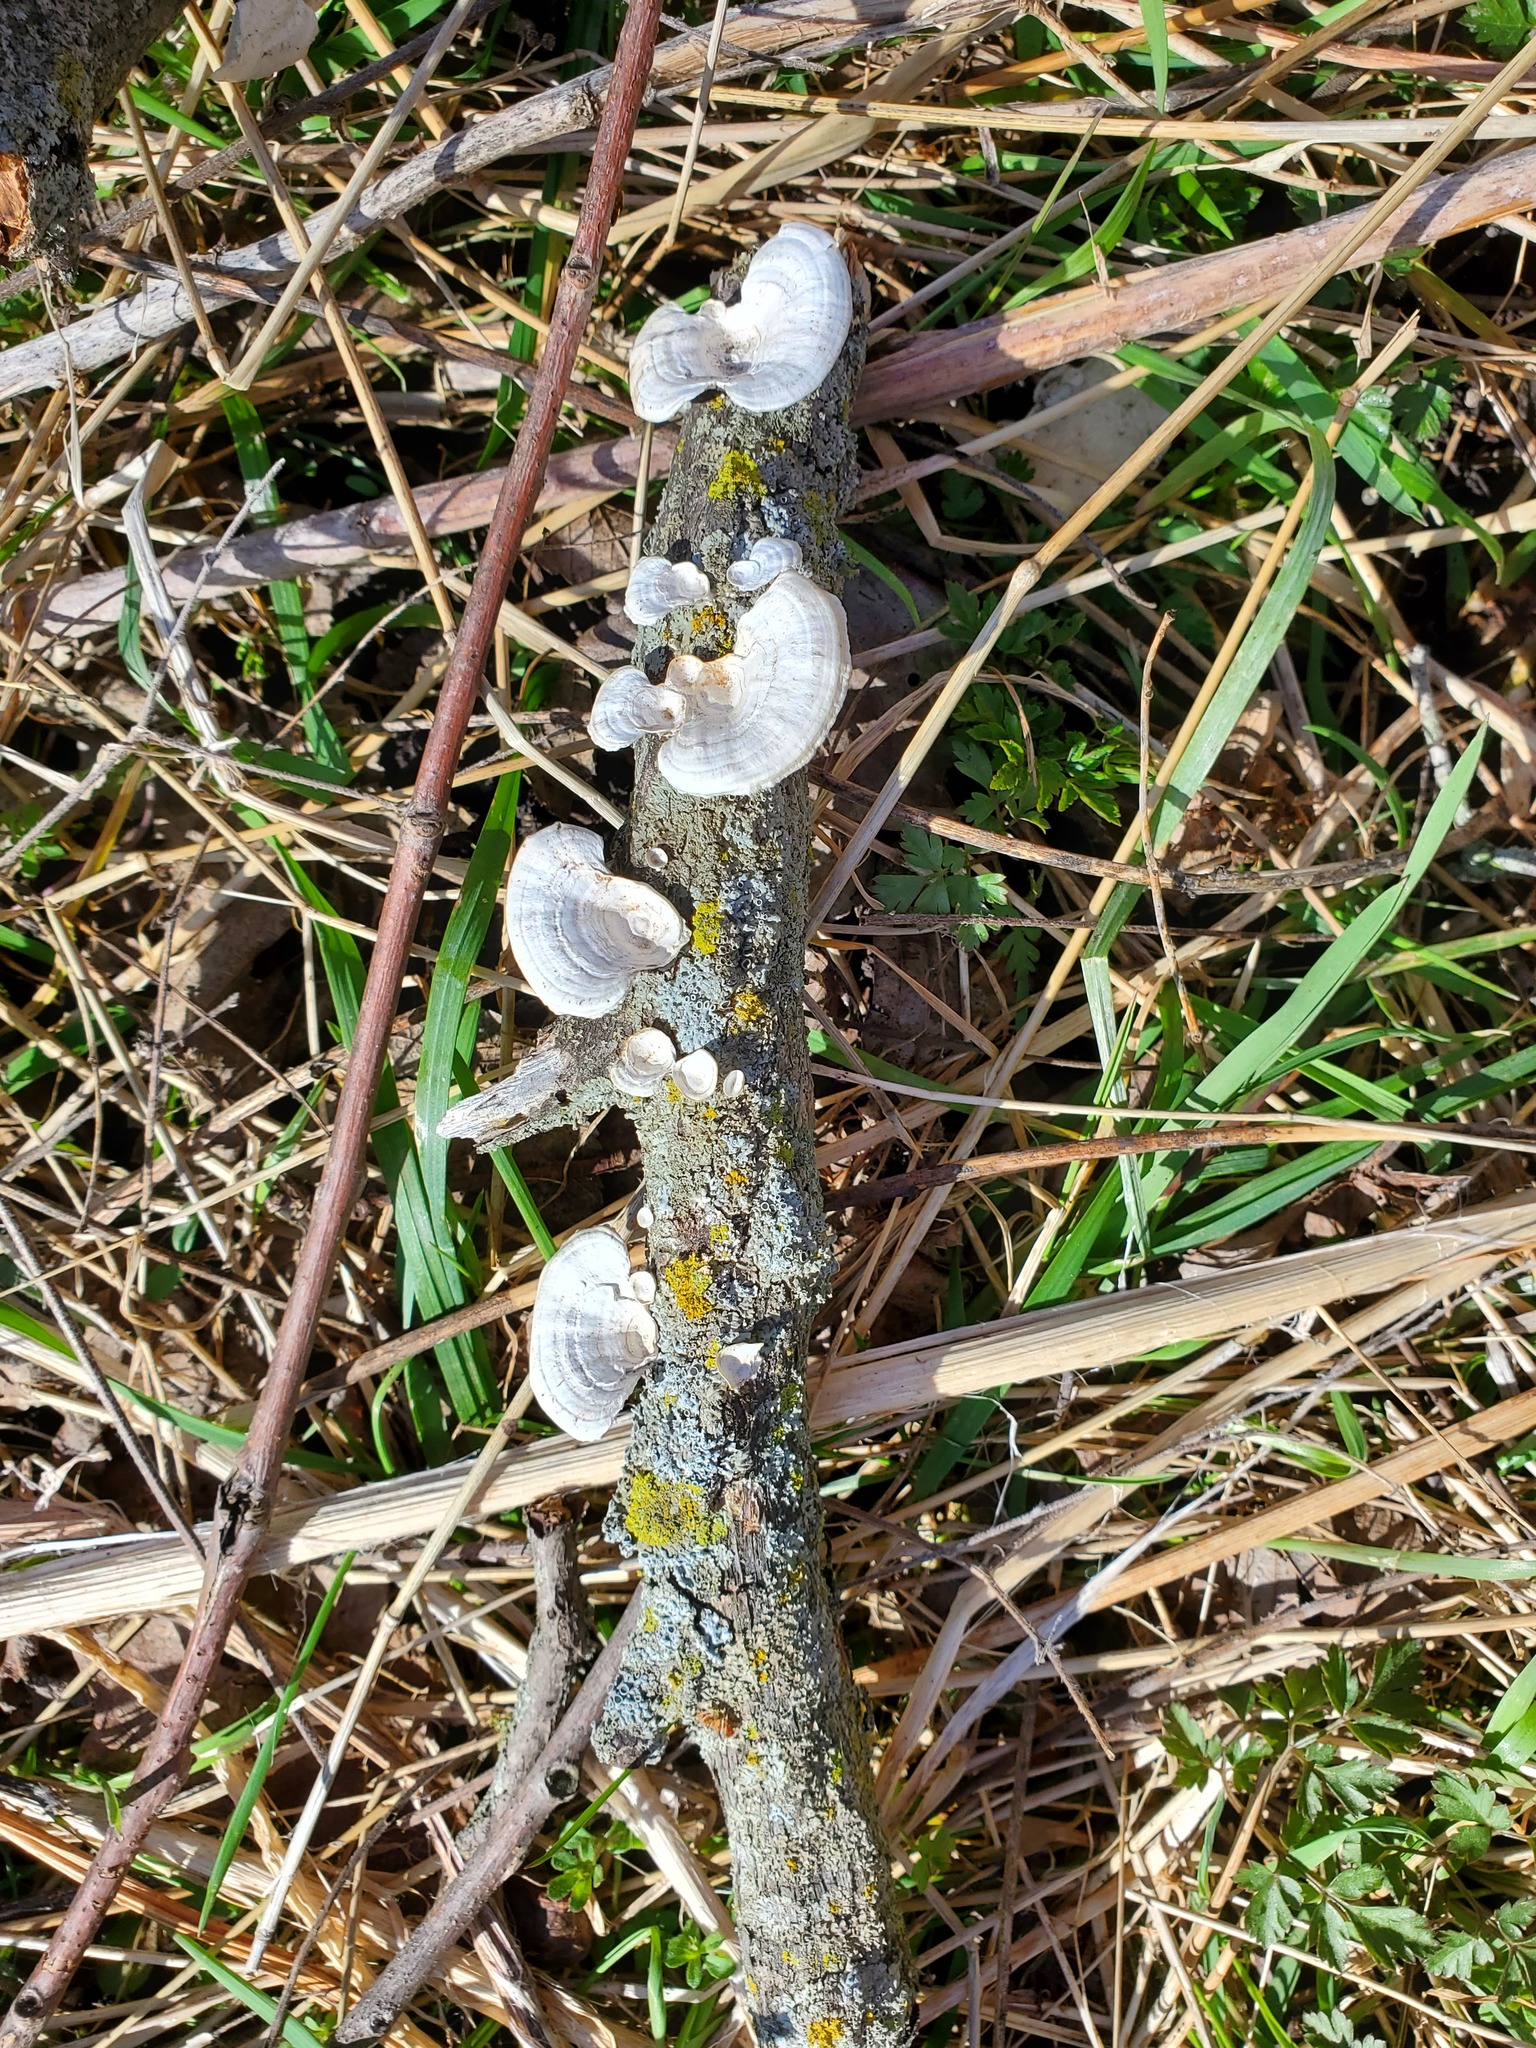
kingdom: Fungi
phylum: Basidiomycota
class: Agaricomycetes
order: Polyporales
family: Polyporaceae
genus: Poronidulus
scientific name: Poronidulus conchifer
